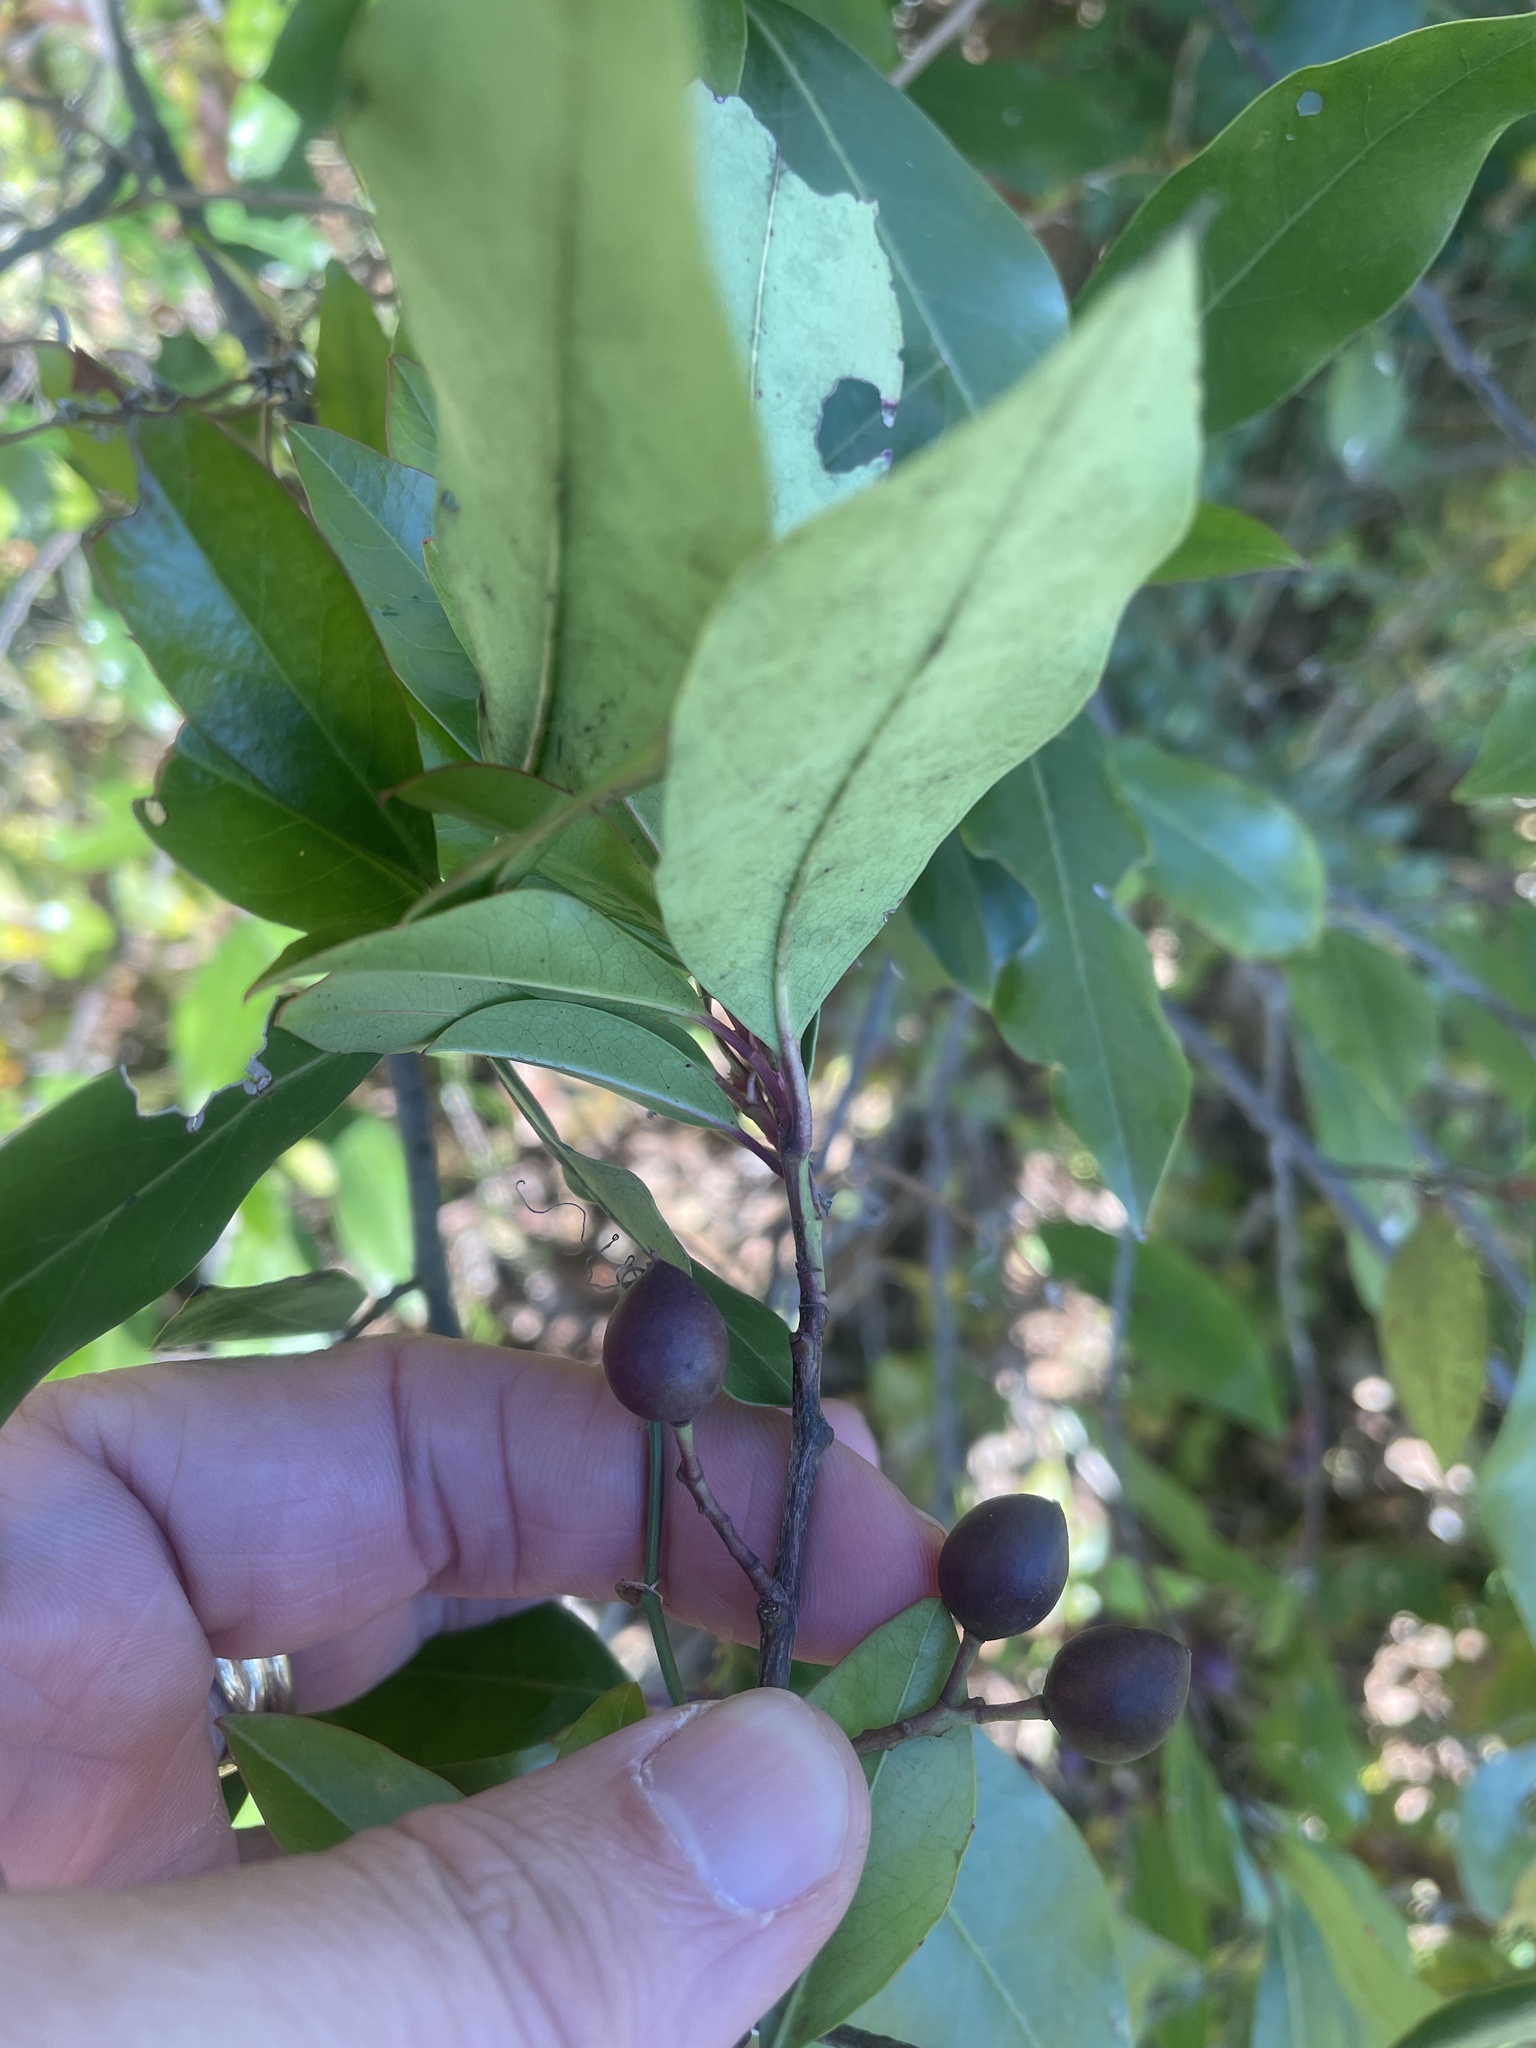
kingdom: Plantae
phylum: Tracheophyta
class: Magnoliopsida
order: Rosales
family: Rosaceae
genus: Prunus
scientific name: Prunus caroliniana
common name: Carolina laurel cherry
